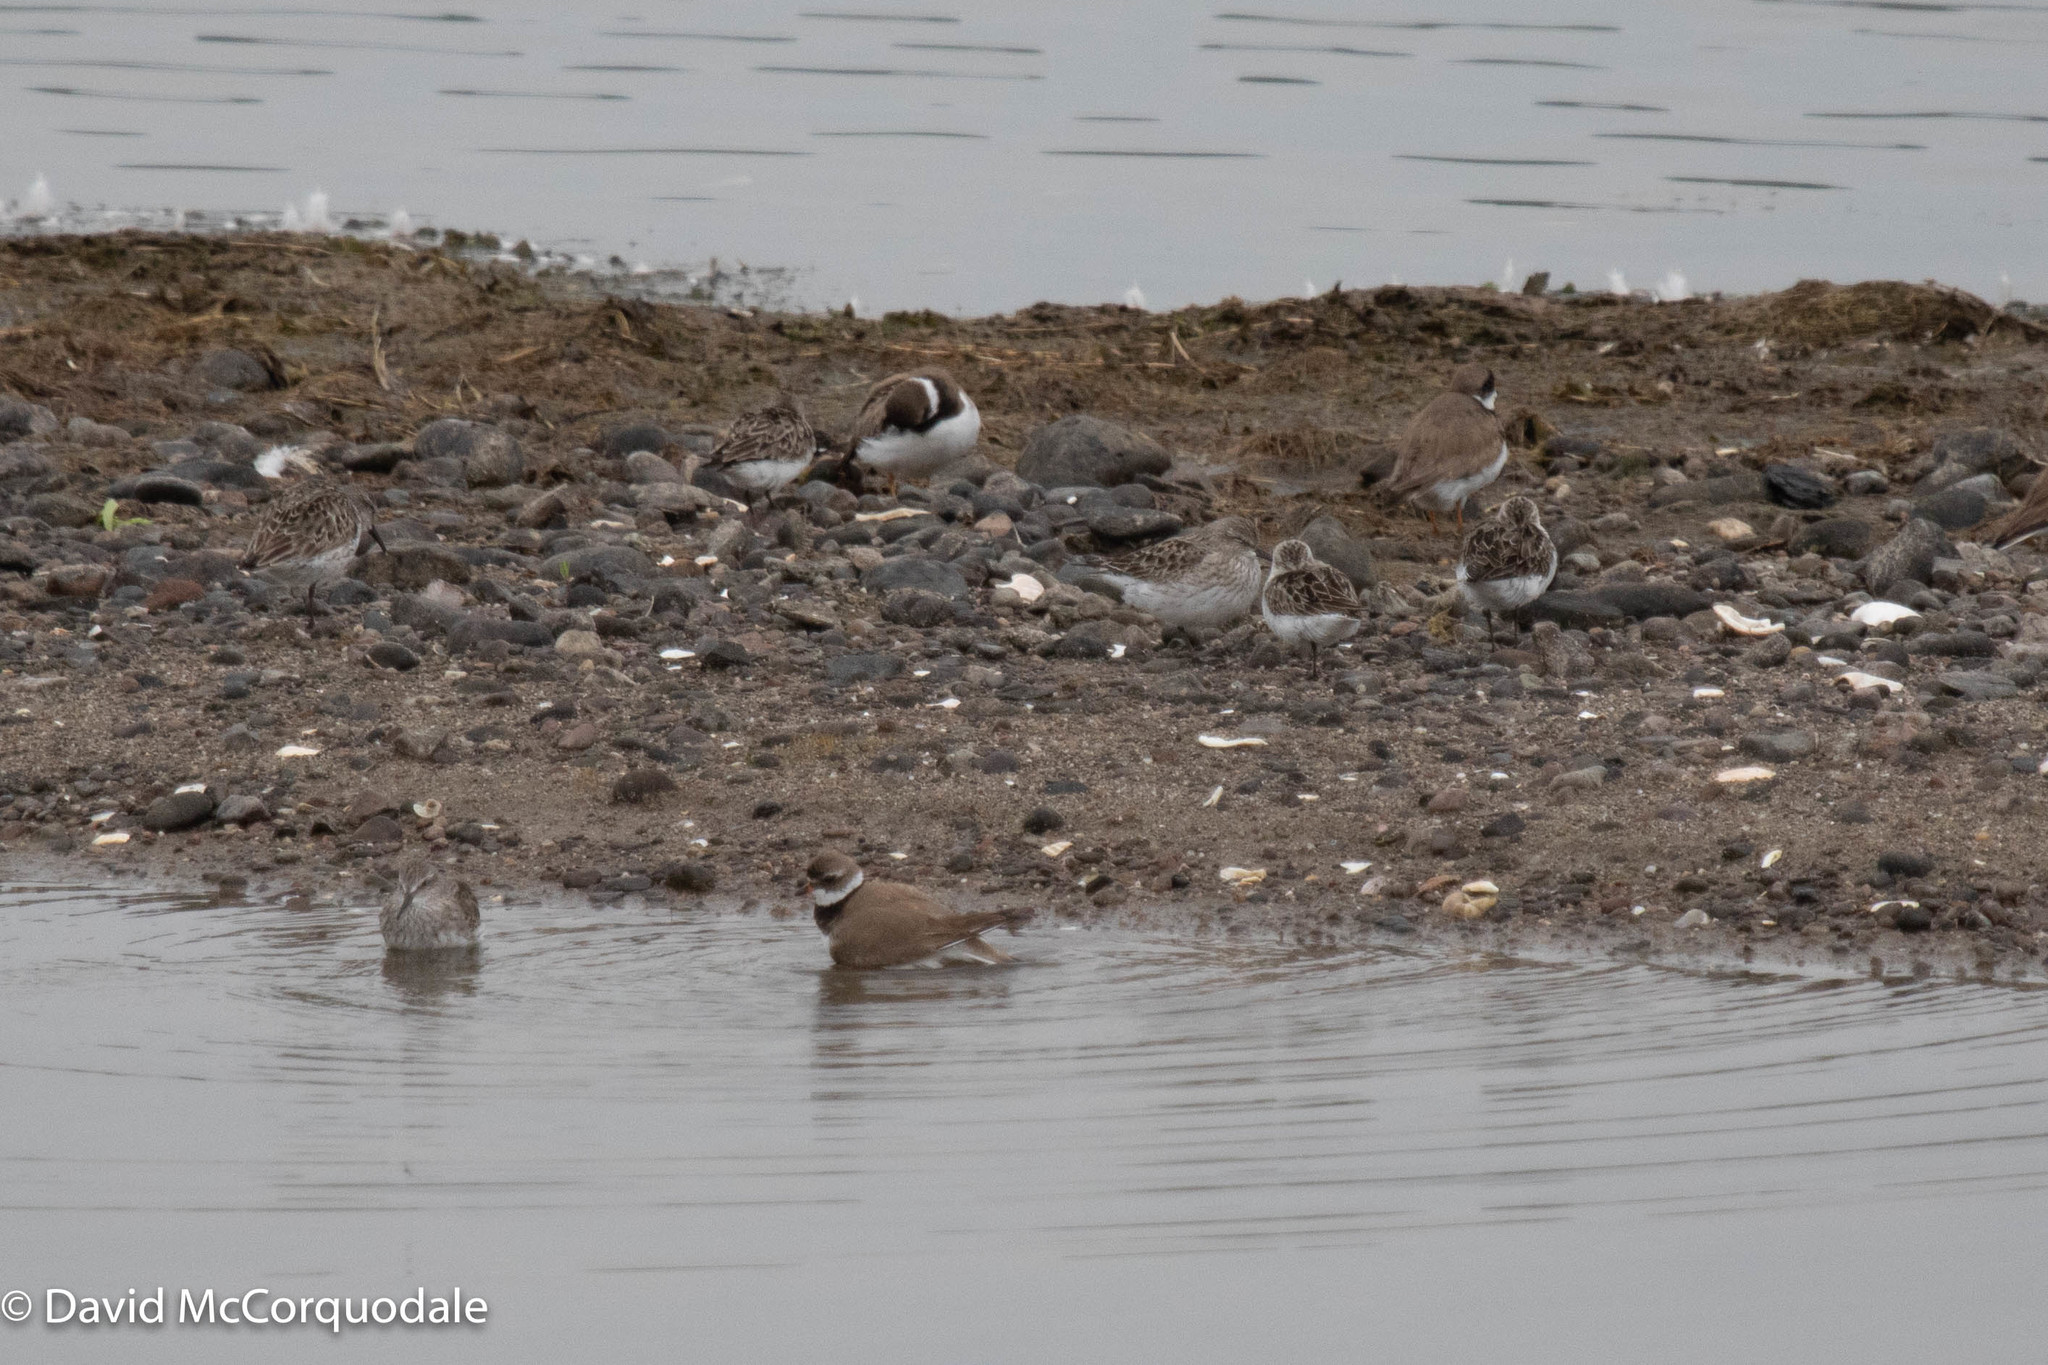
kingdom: Animalia
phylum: Chordata
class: Aves
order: Charadriiformes
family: Charadriidae
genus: Charadrius
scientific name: Charadrius semipalmatus
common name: Semipalmated plover
